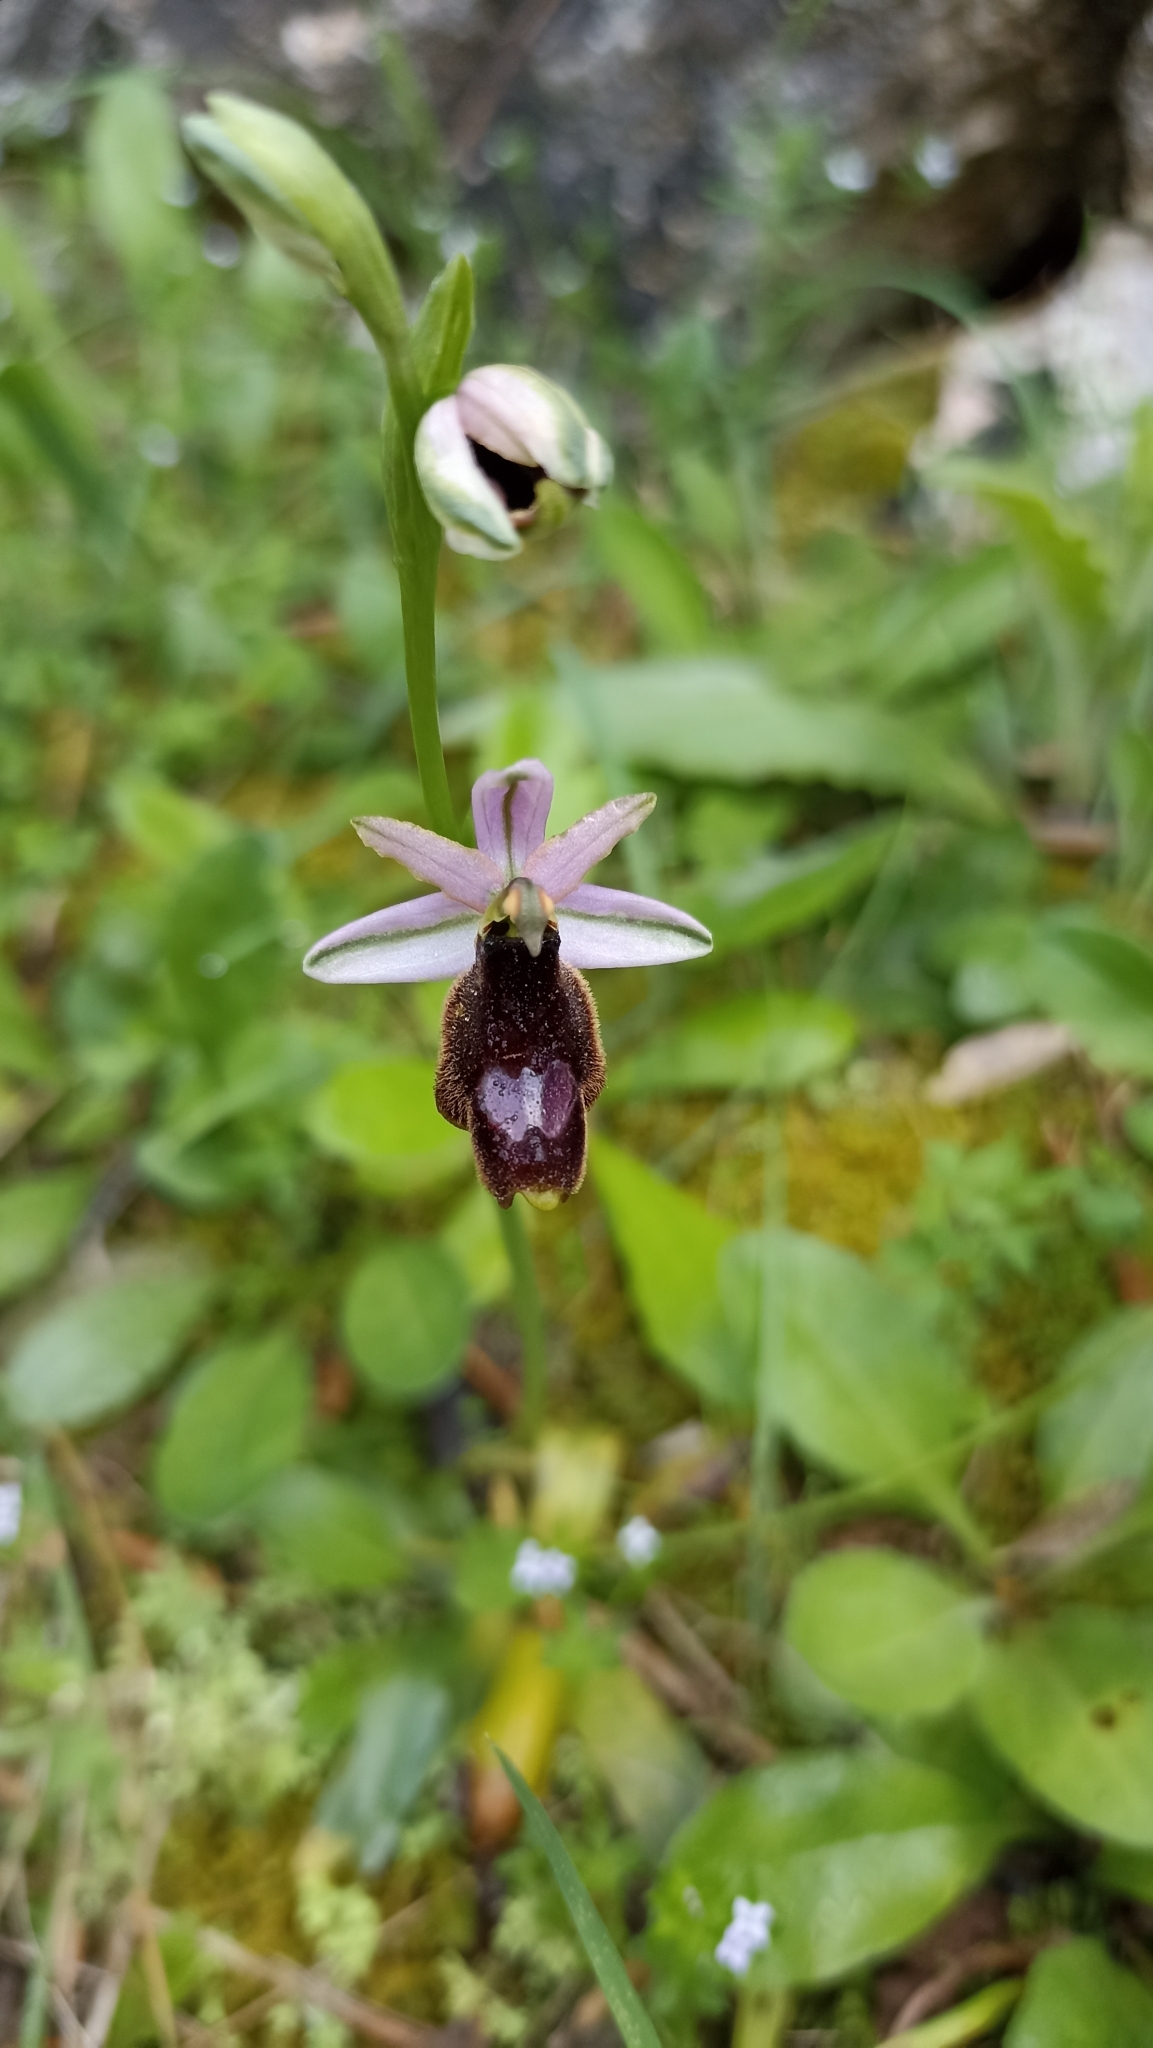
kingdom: Plantae
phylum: Tracheophyta
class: Liliopsida
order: Asparagales
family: Orchidaceae
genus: Ophrys
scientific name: Ophrys bertolonii
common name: Bertoloni's bee orchid
